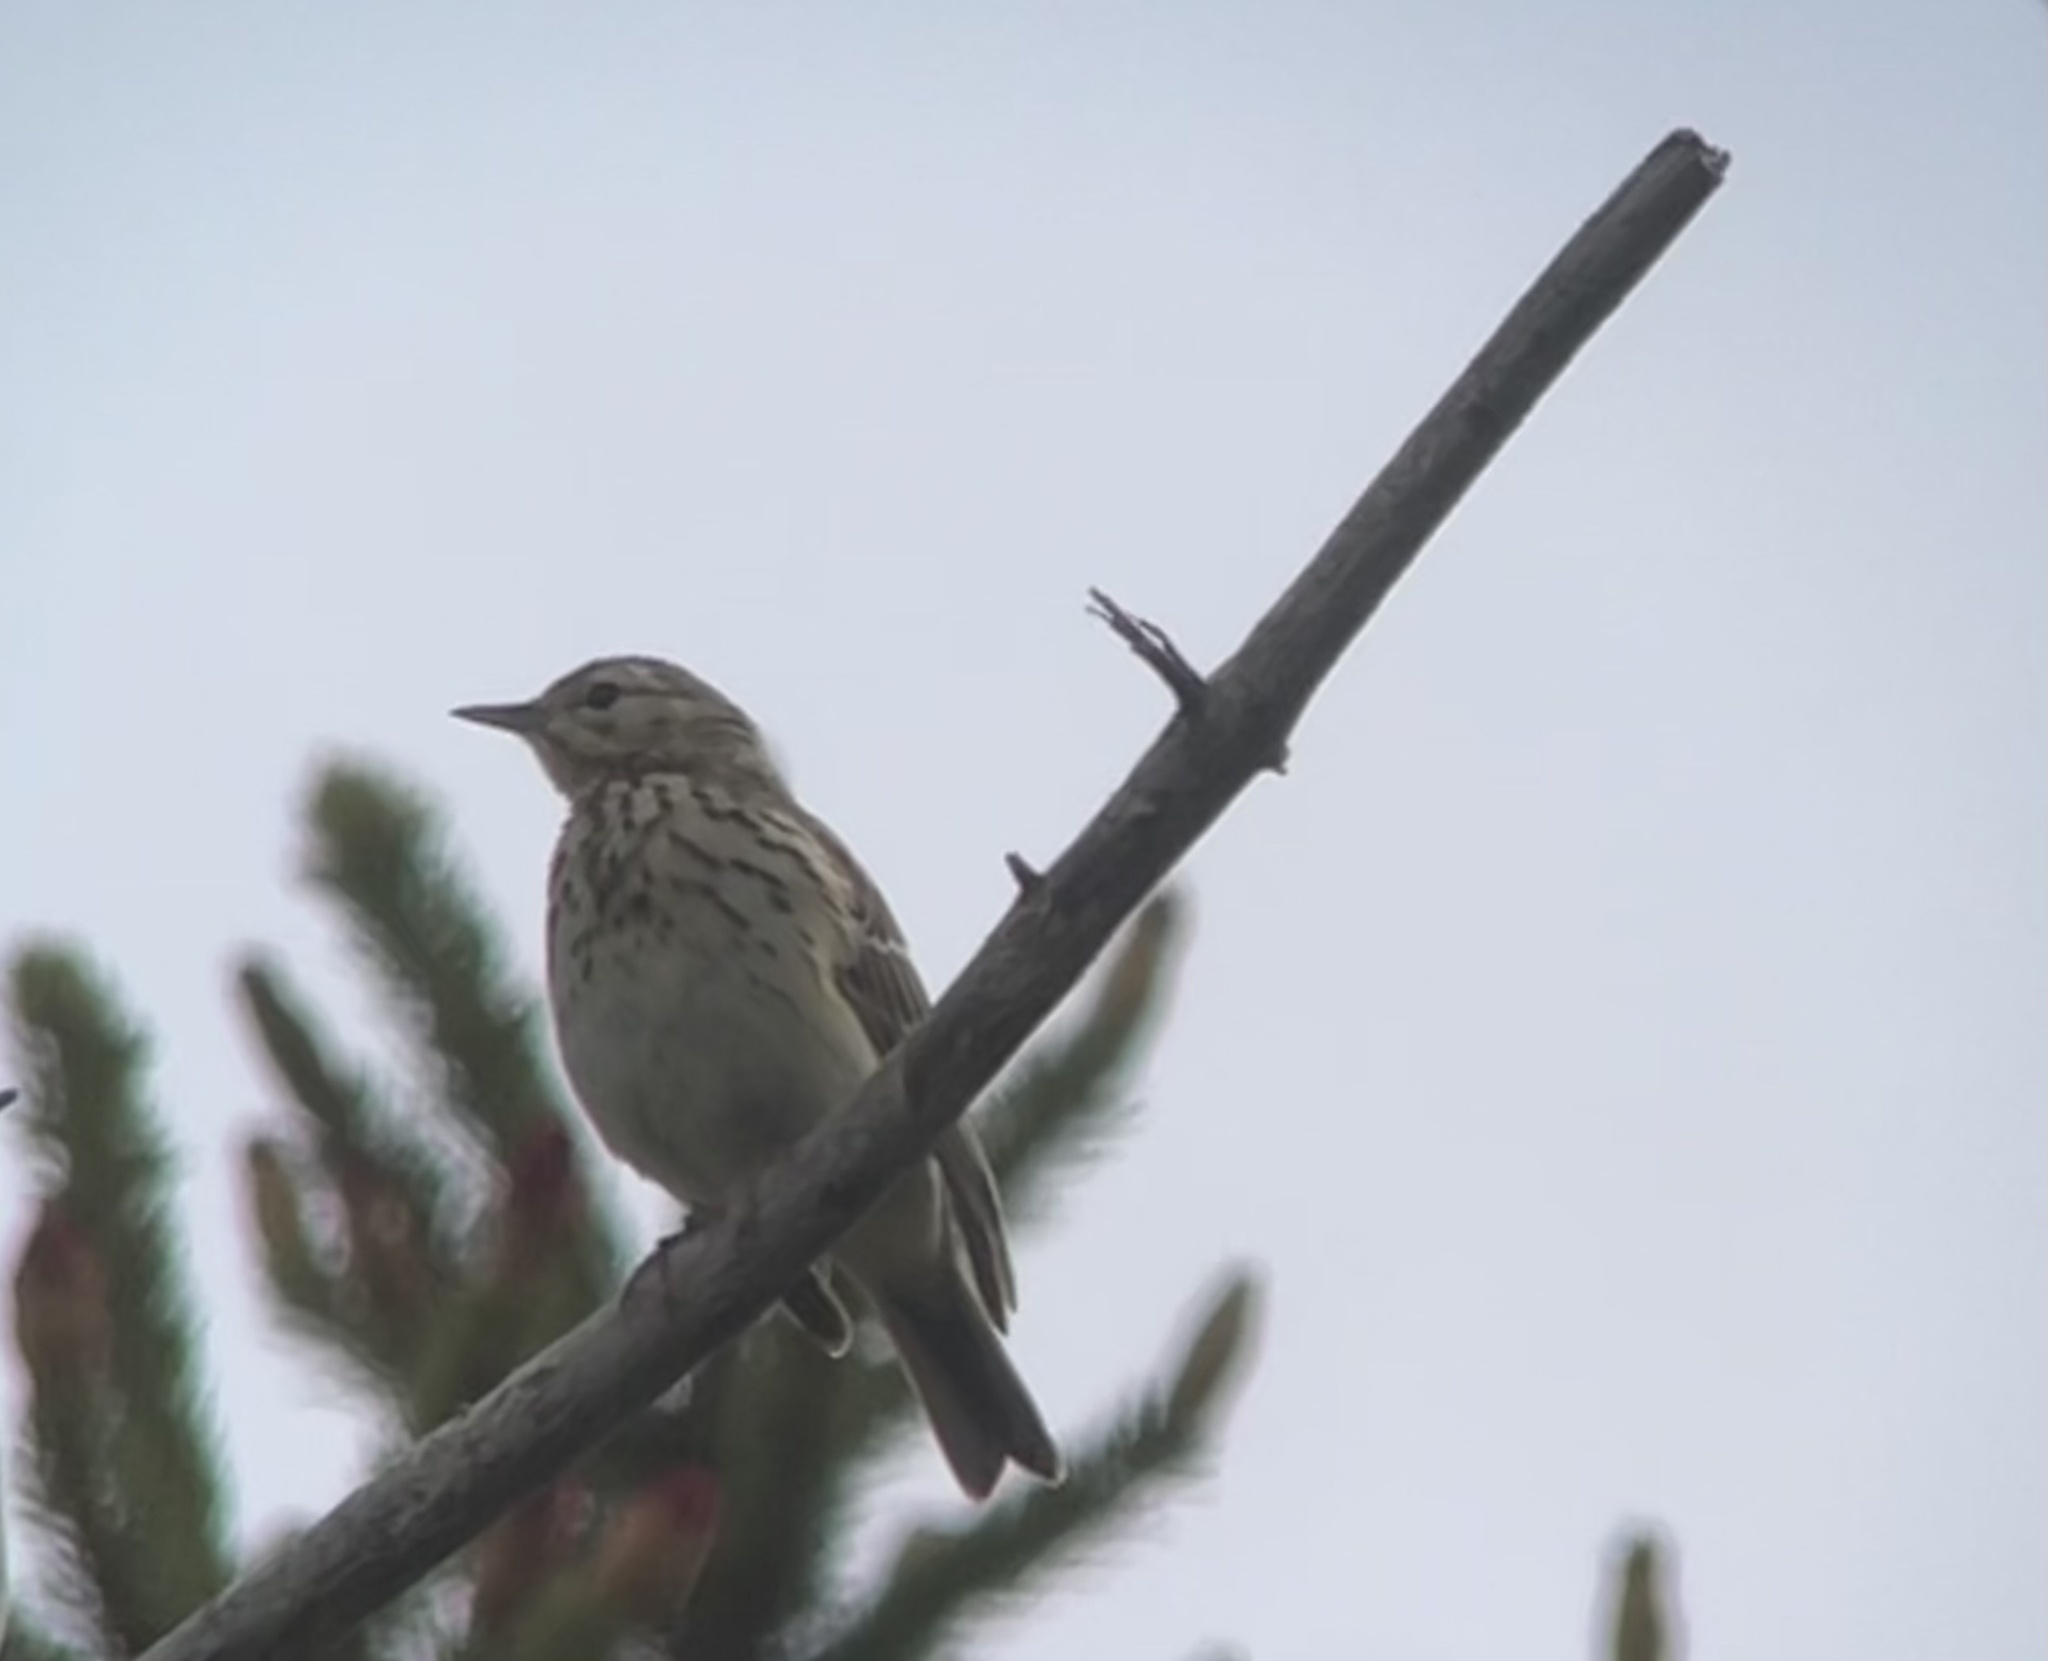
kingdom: Animalia
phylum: Chordata
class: Aves
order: Passeriformes
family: Motacillidae
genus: Anthus
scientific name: Anthus trivialis
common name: Tree pipit
